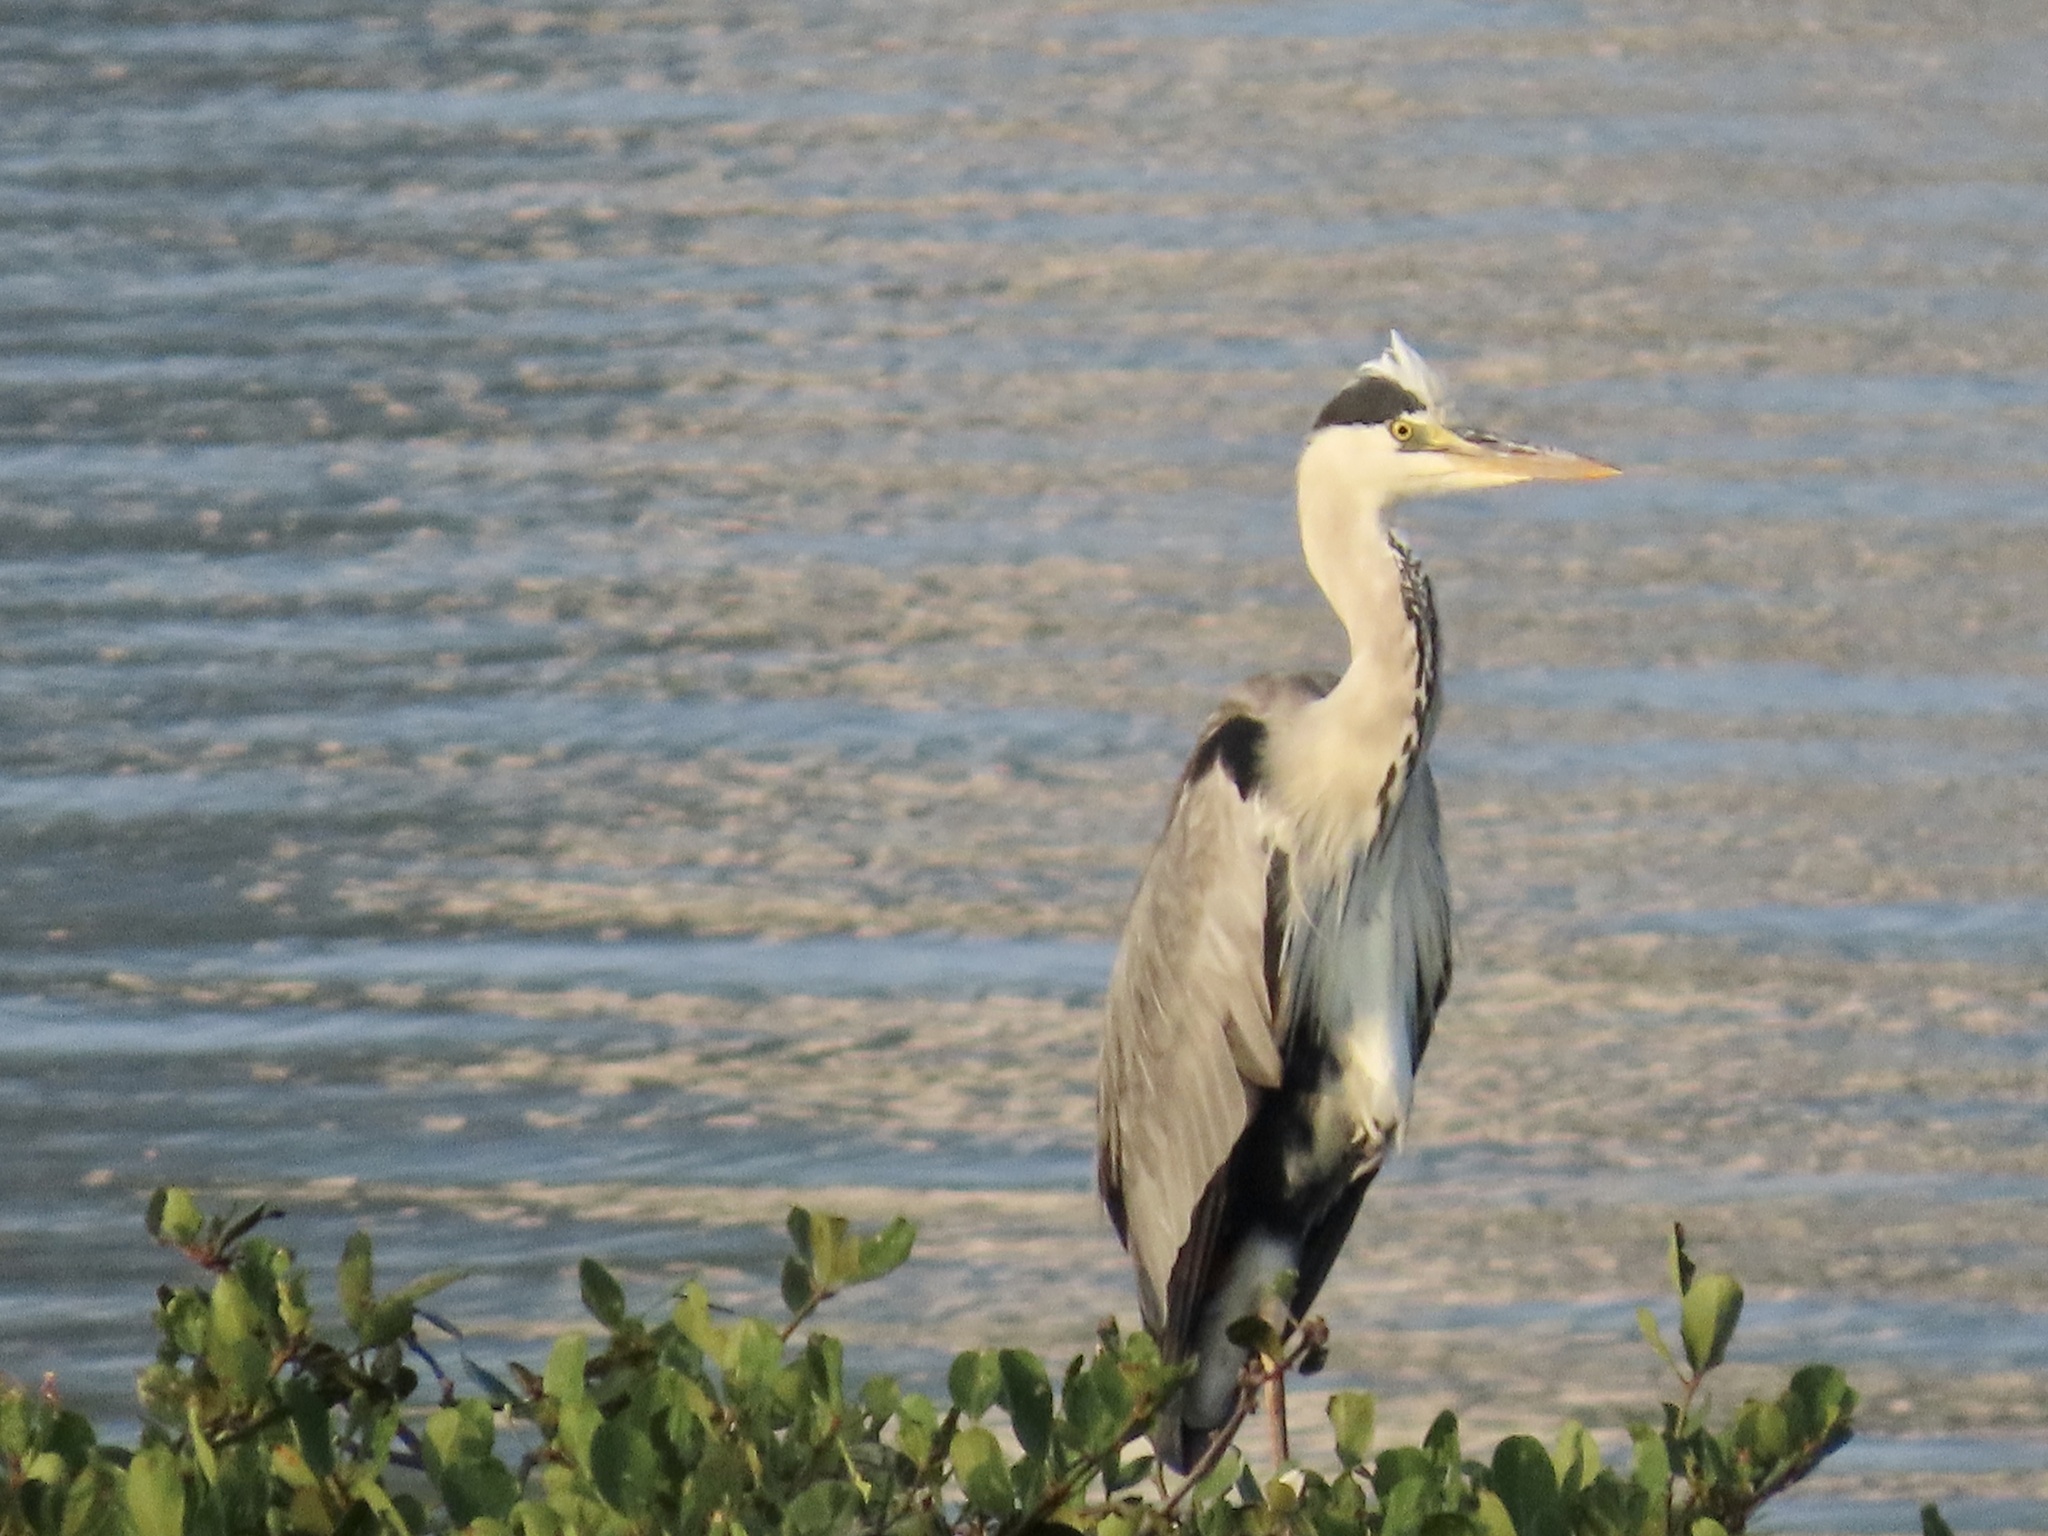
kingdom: Animalia
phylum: Chordata
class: Aves
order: Pelecaniformes
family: Ardeidae
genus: Ardea
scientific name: Ardea cinerea
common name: Grey heron
